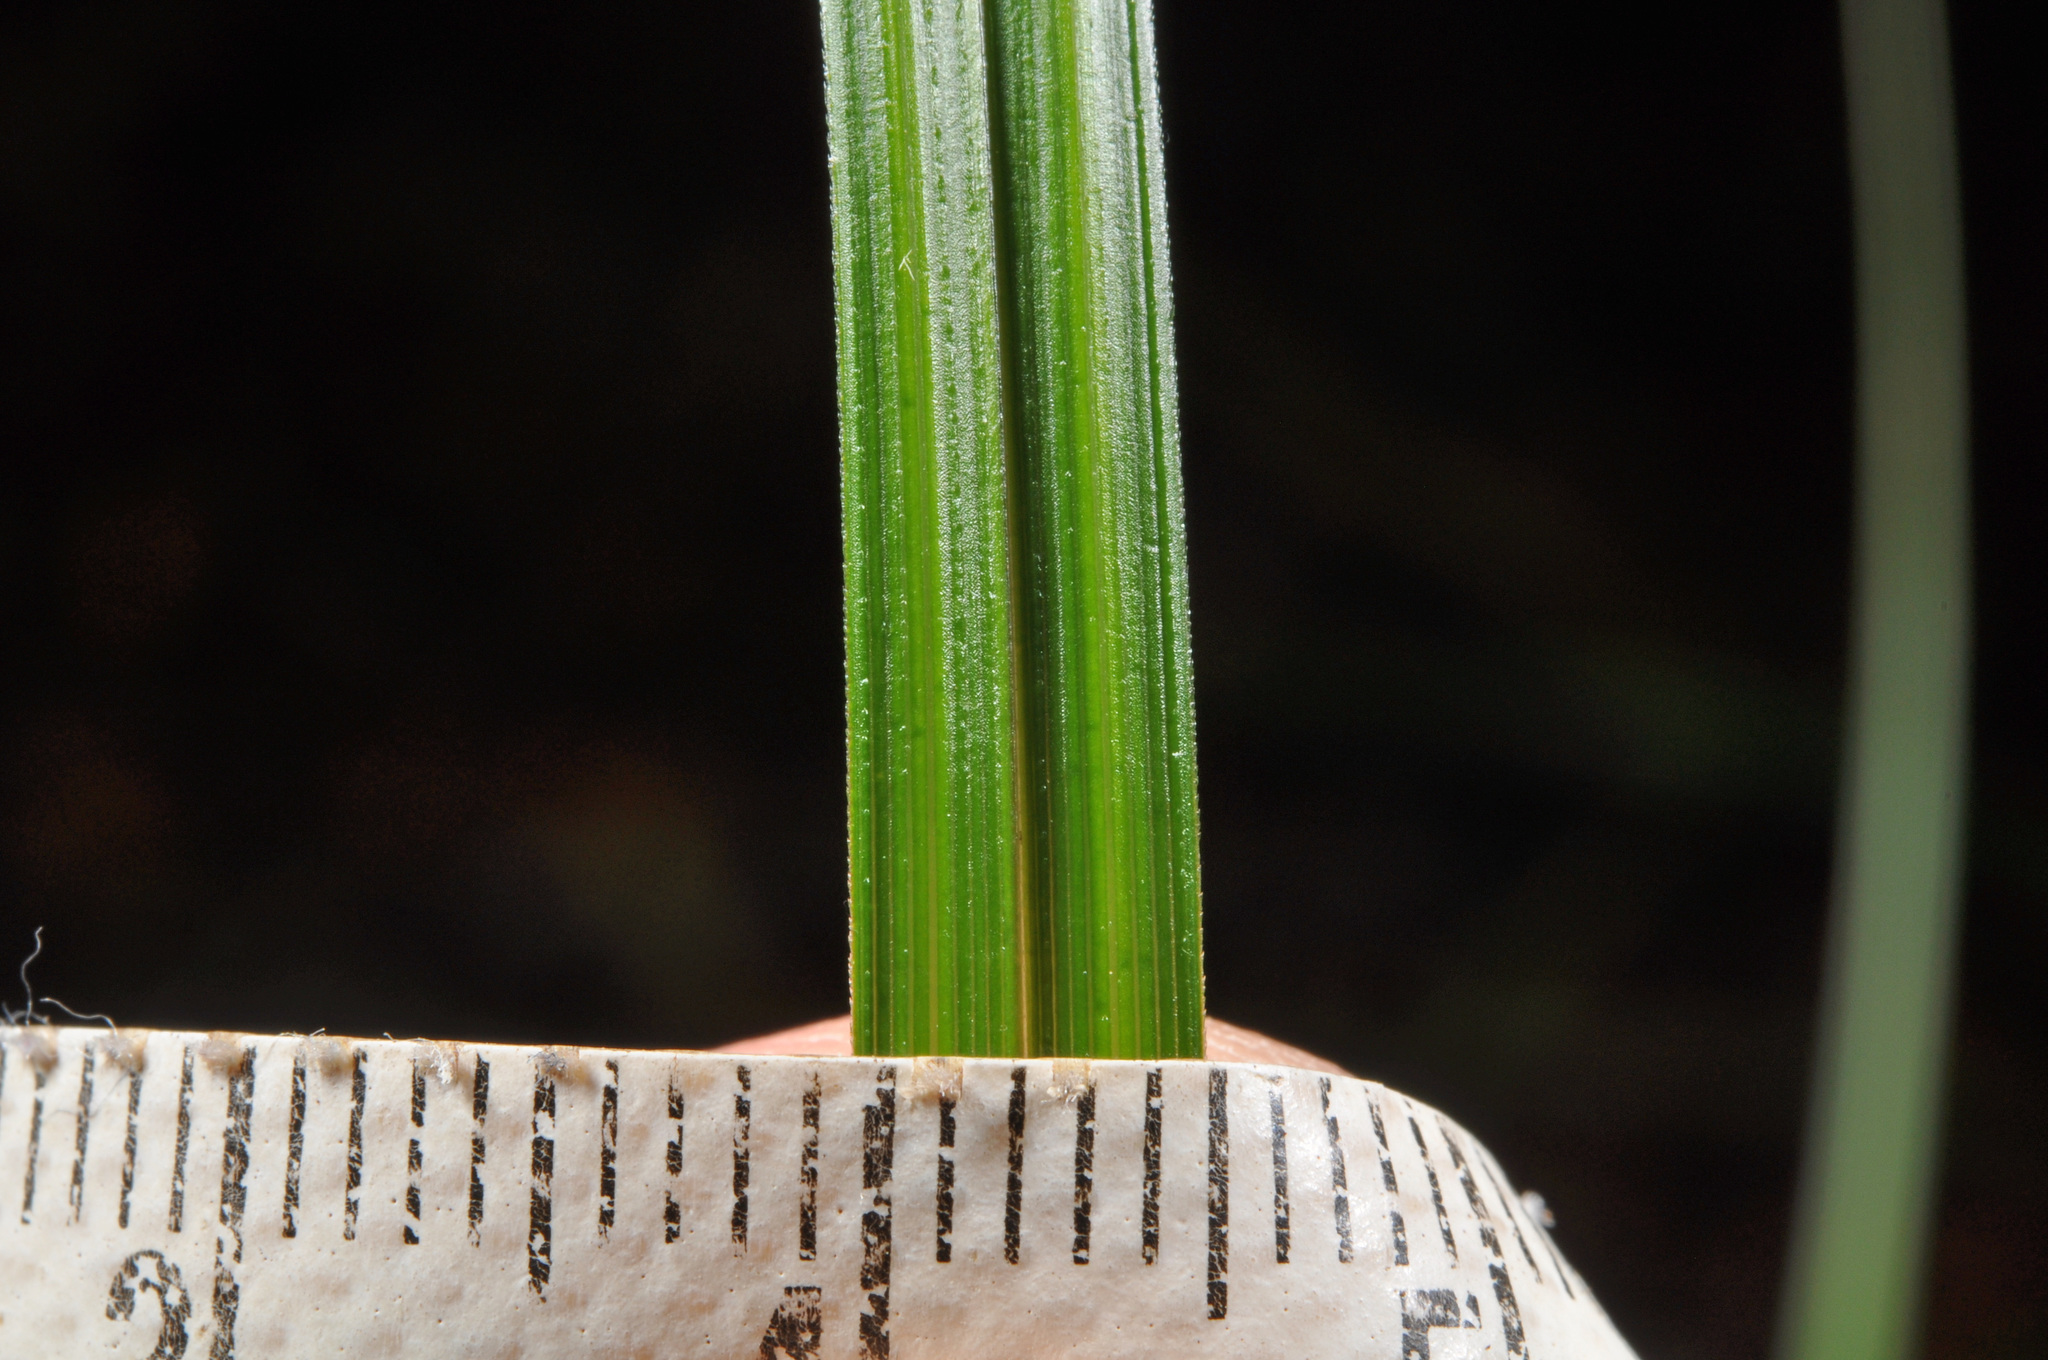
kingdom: Plantae
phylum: Tracheophyta
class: Liliopsida
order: Poales
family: Cyperaceae
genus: Carex
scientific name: Carex uncinata
